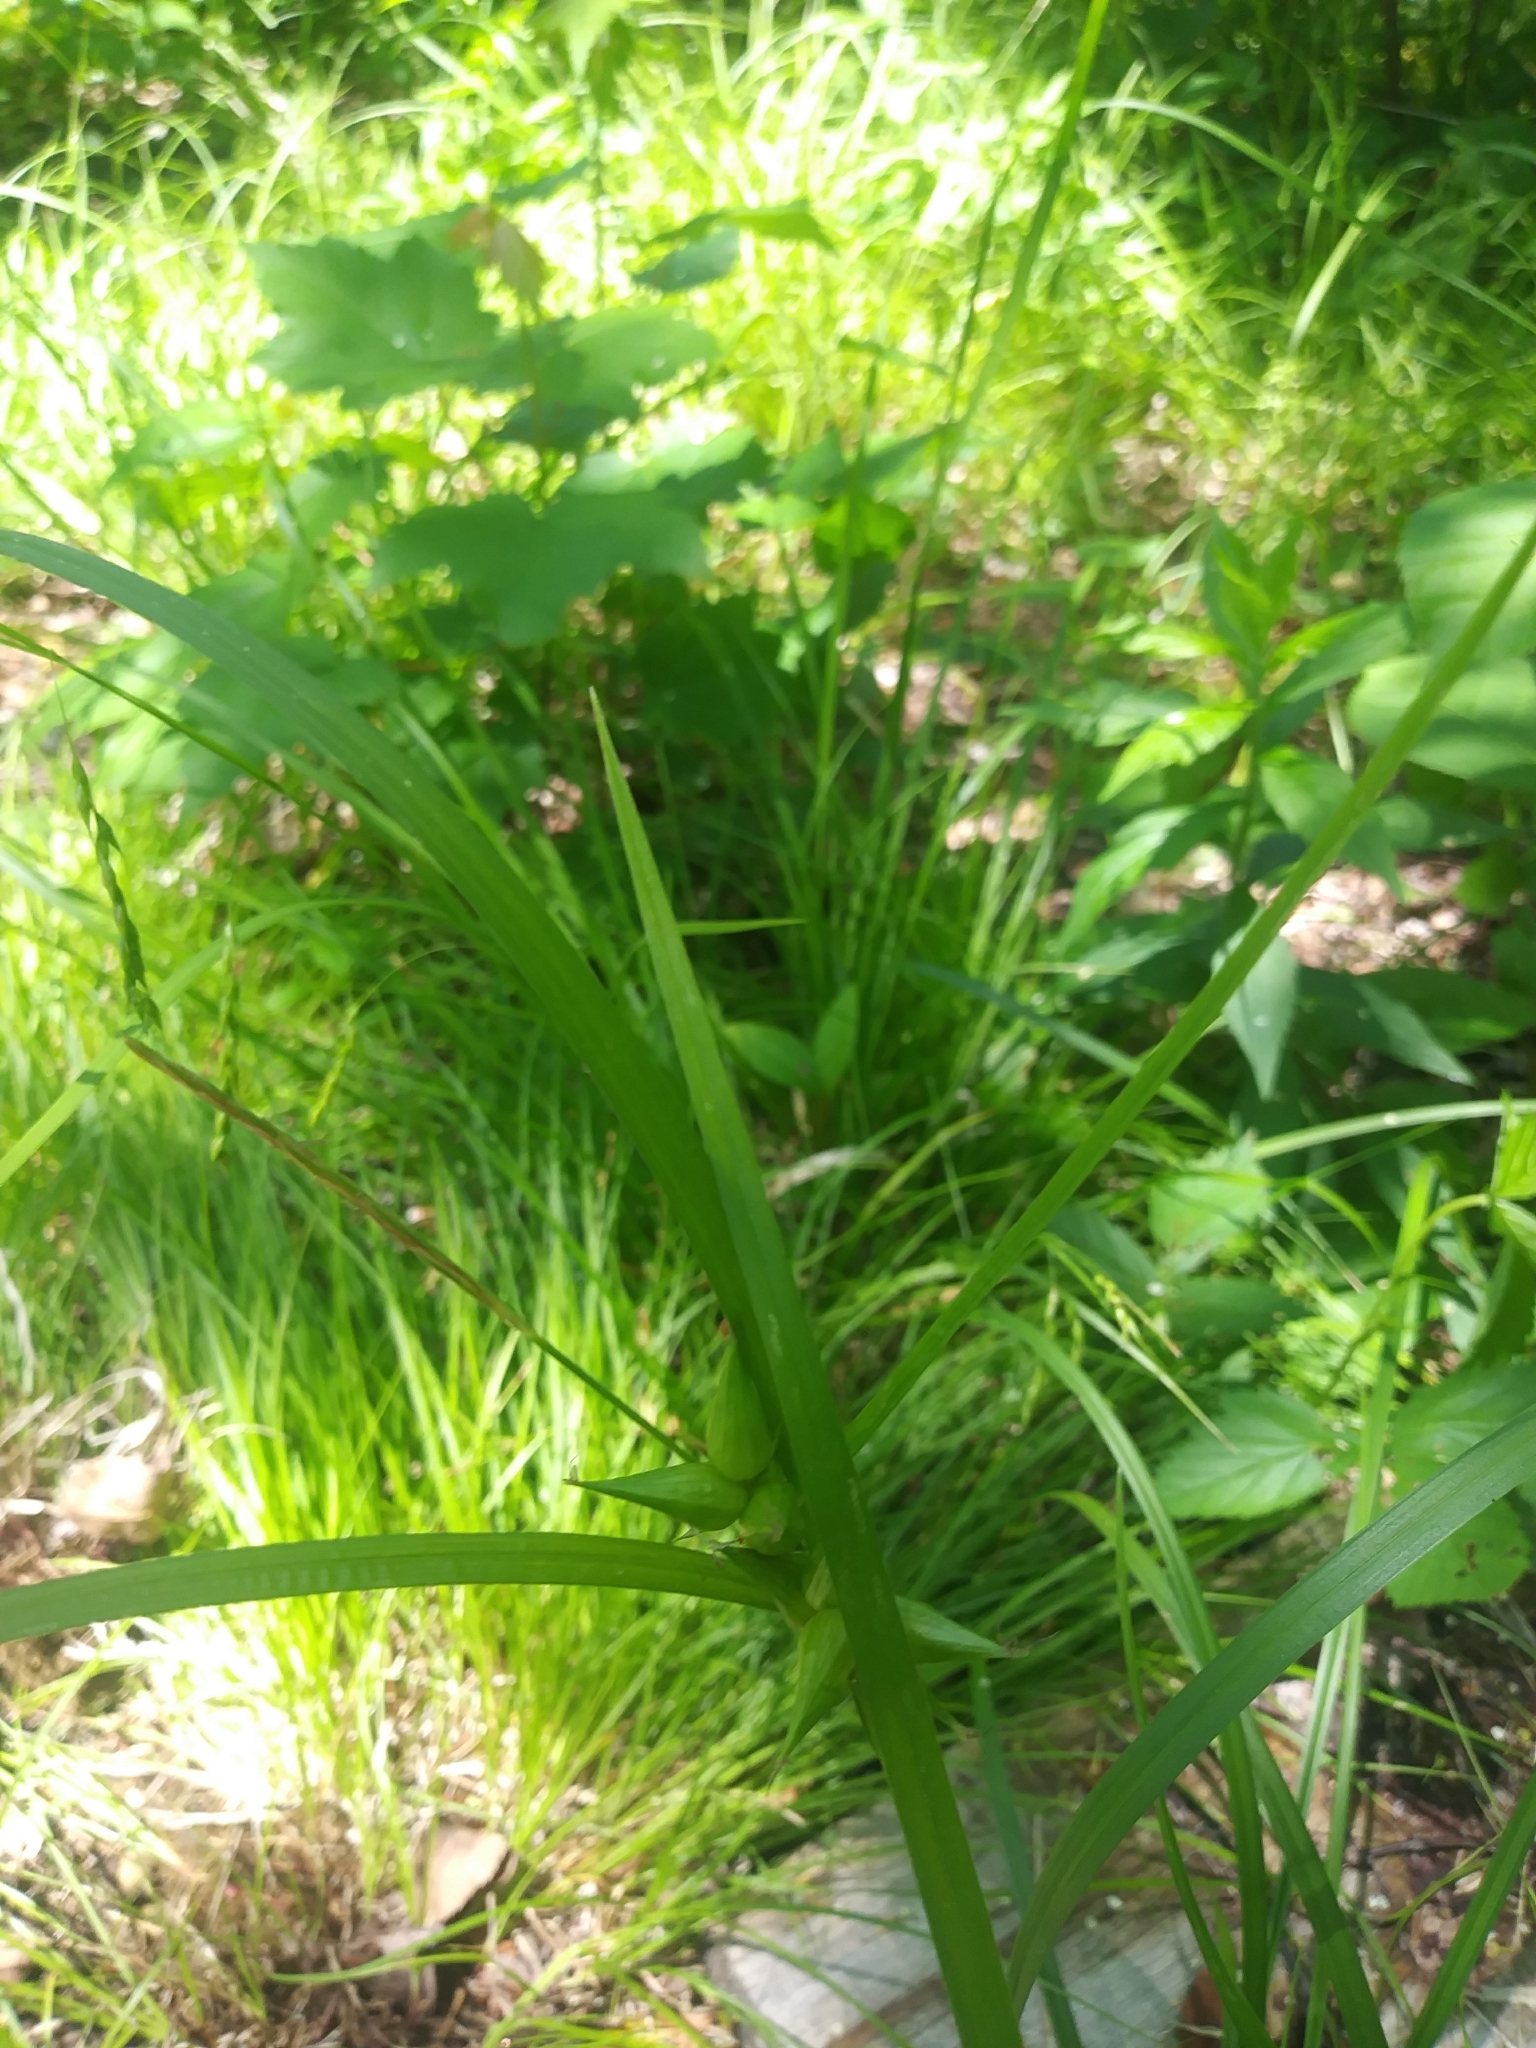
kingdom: Plantae
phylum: Tracheophyta
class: Liliopsida
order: Poales
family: Cyperaceae
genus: Carex
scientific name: Carex intumescens
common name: Greater bladder sedge
